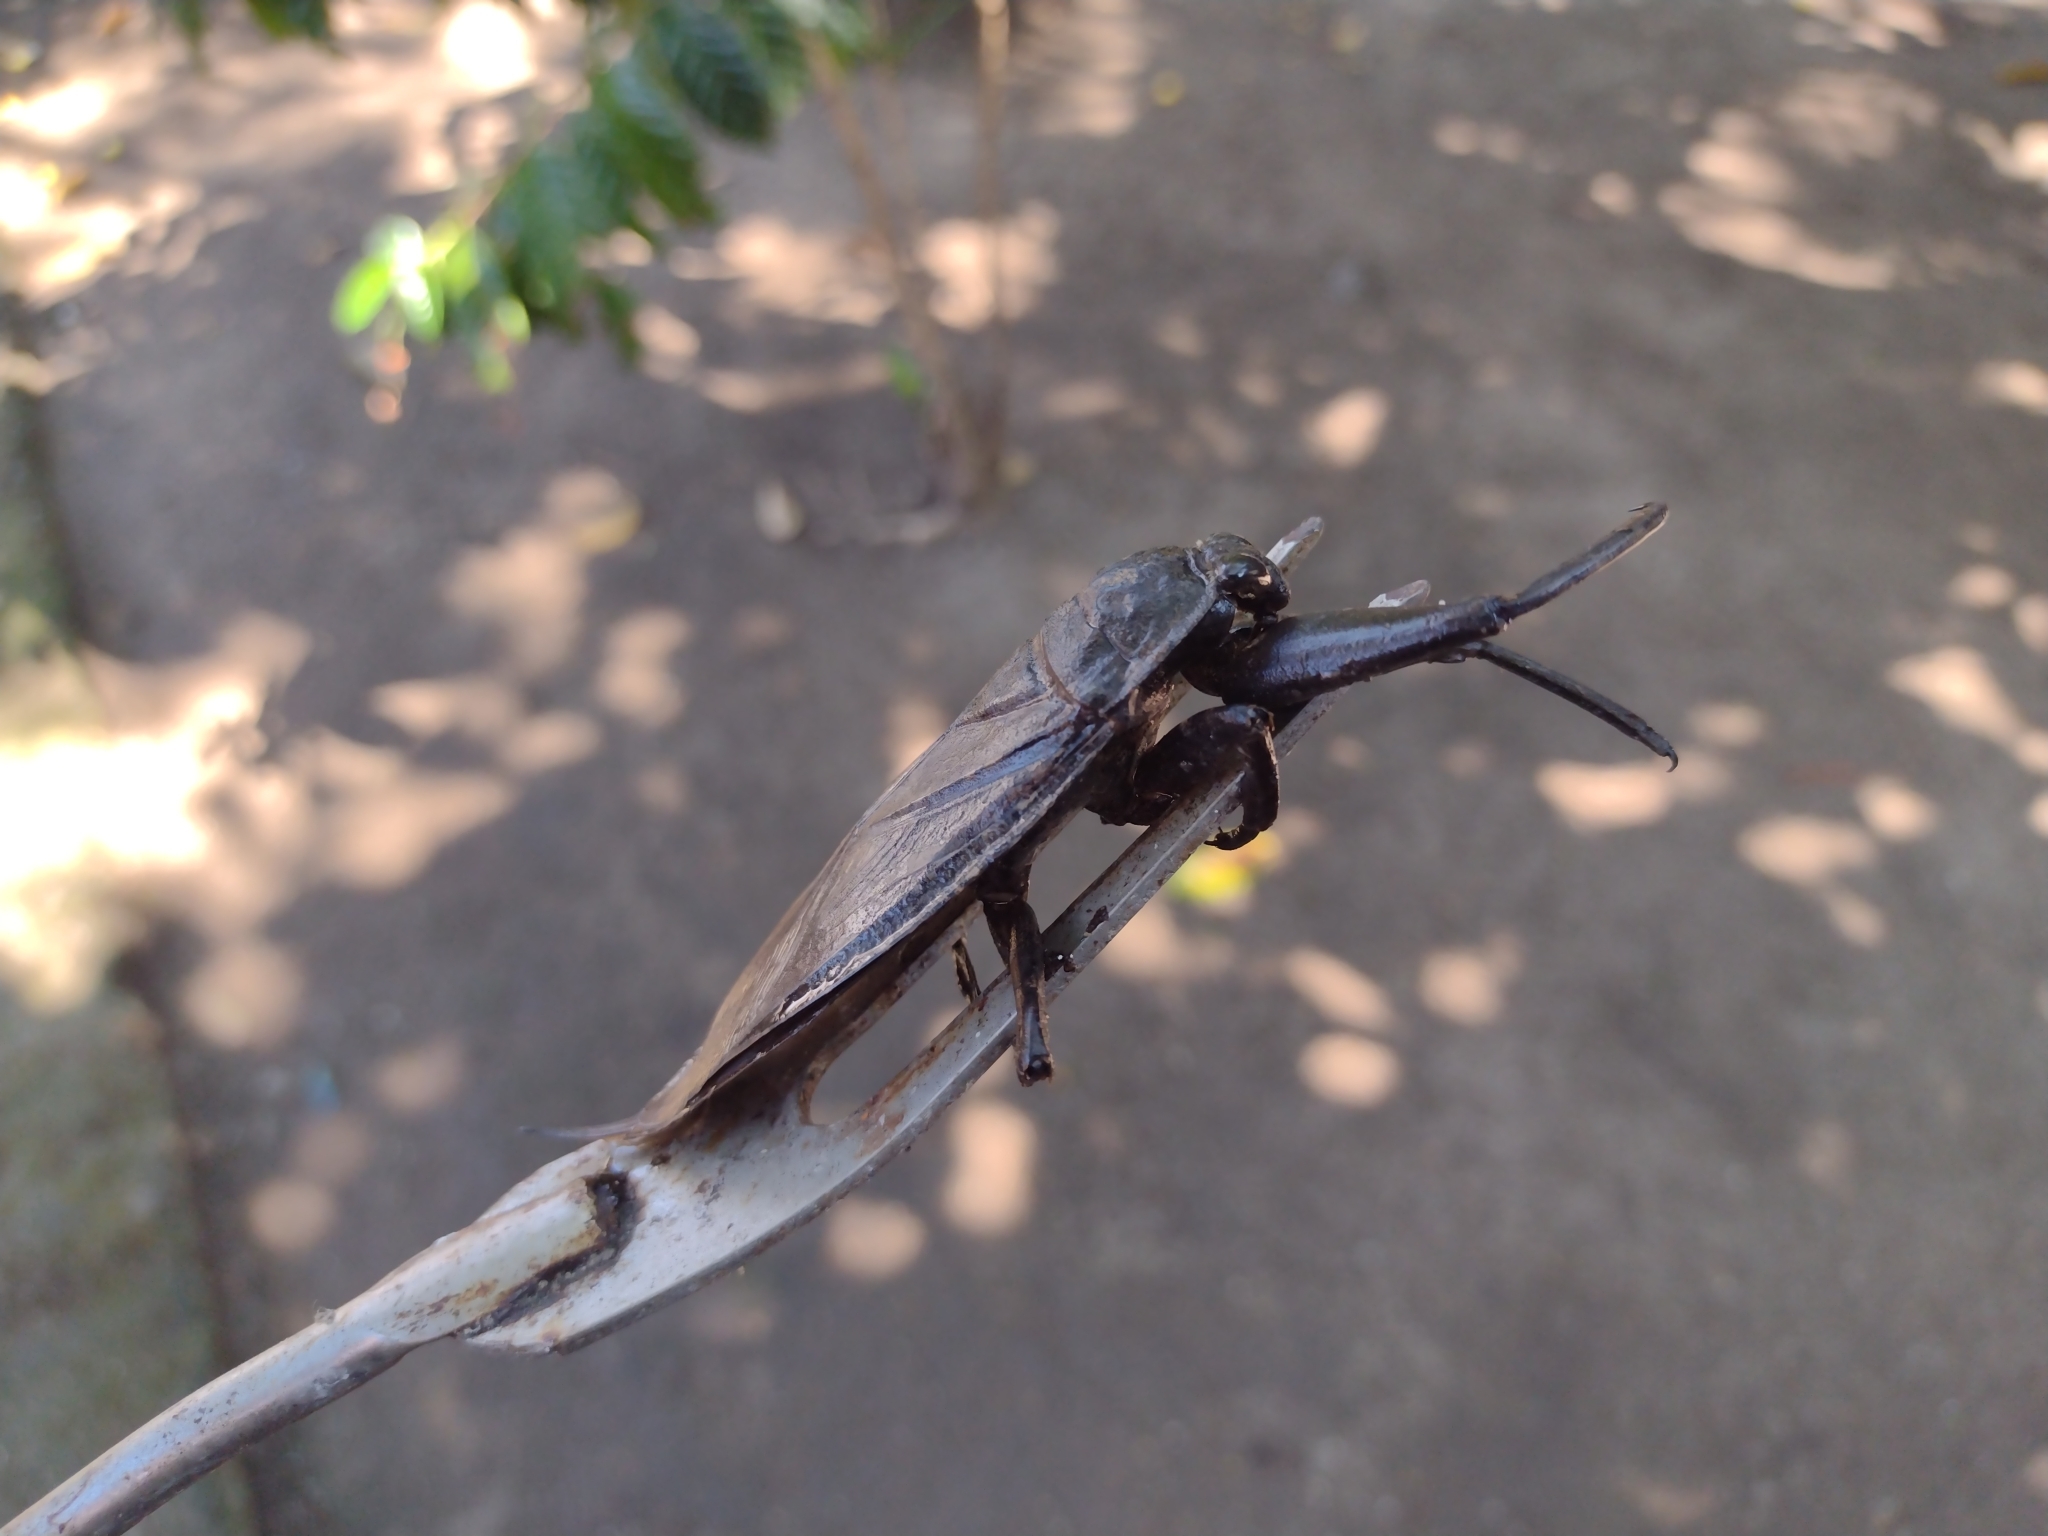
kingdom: Animalia
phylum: Arthropoda
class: Insecta
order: Hemiptera
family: Belostomatidae
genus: Lethocerus
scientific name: Lethocerus collossicus
